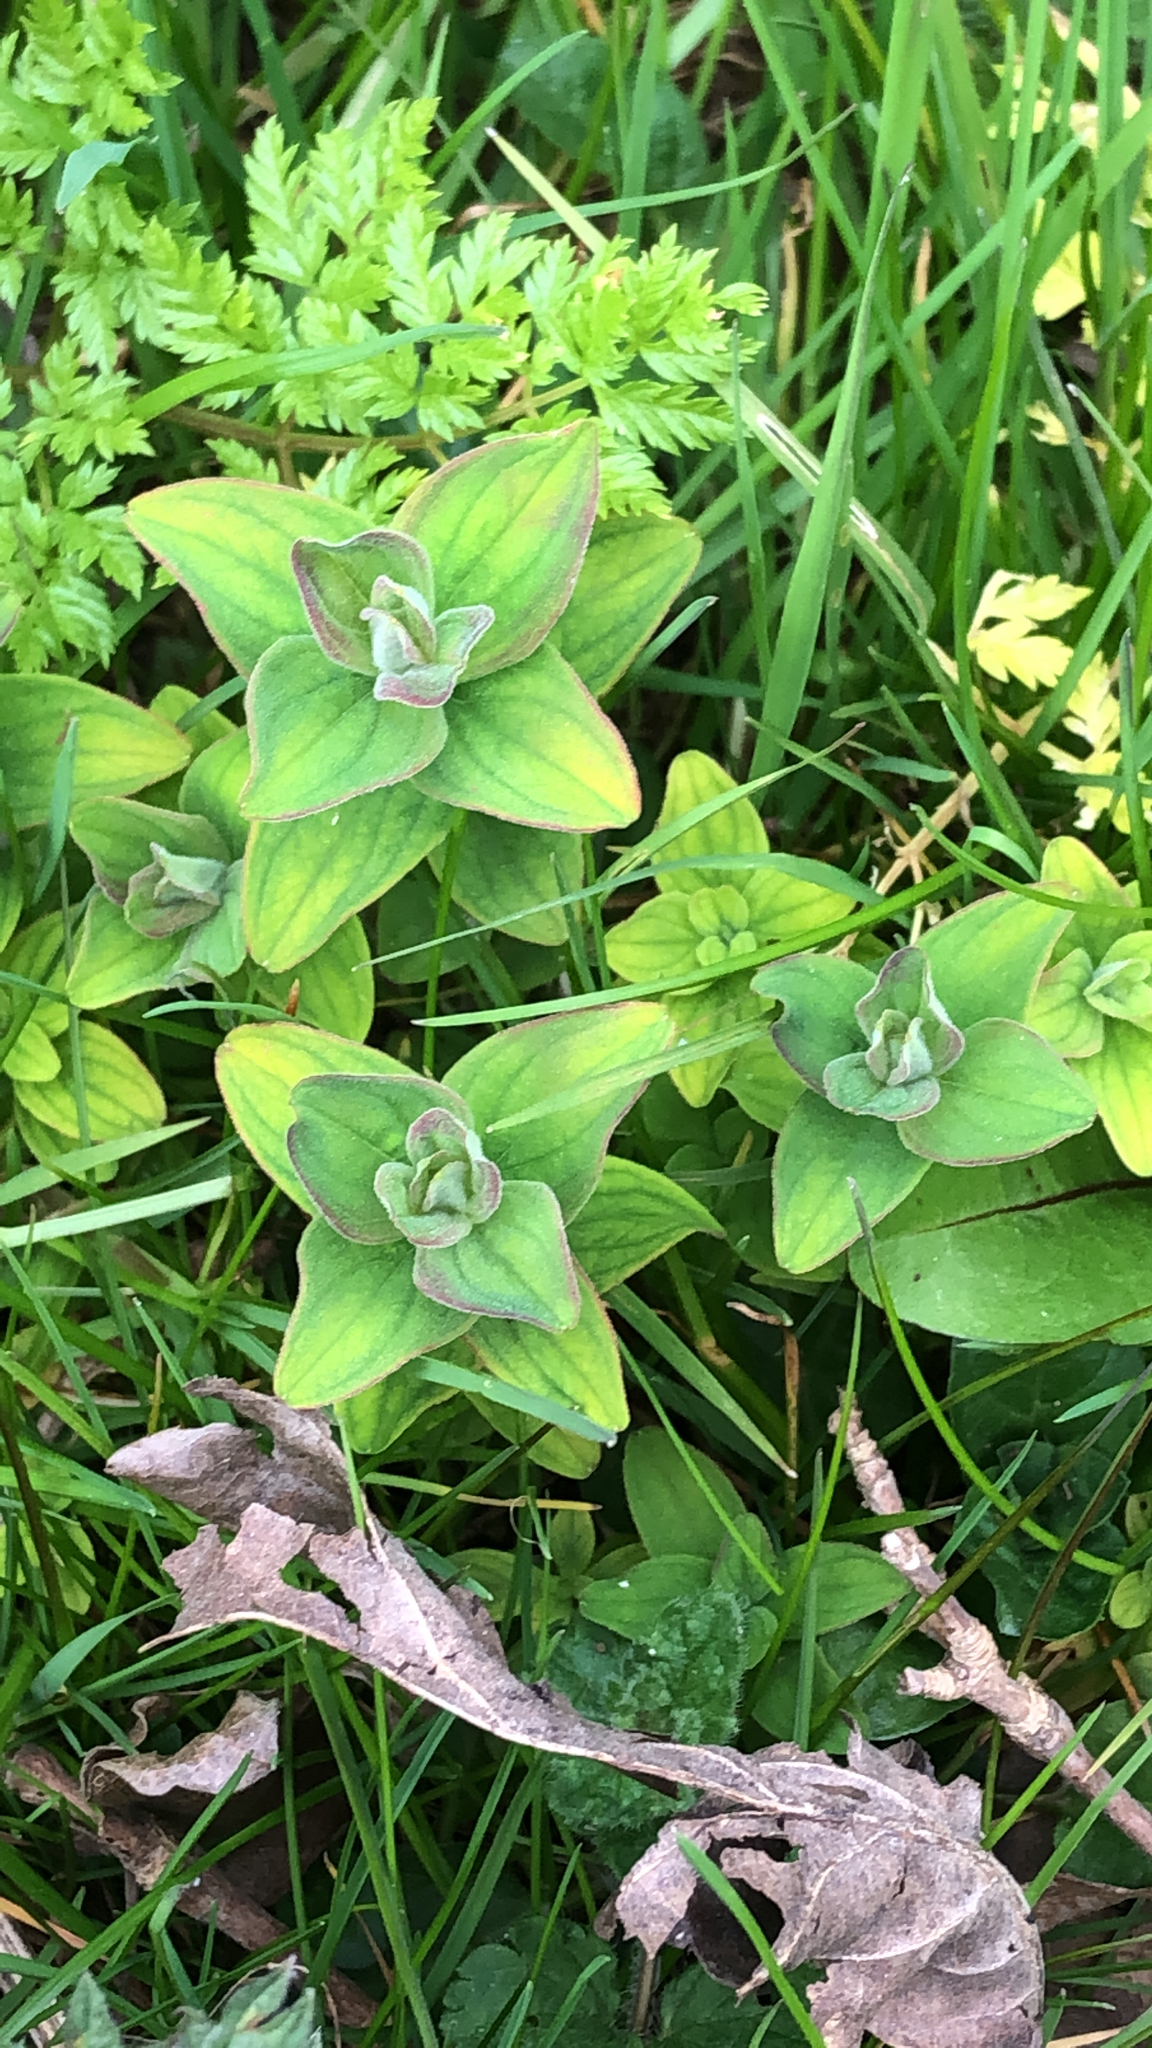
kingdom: Plantae
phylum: Tracheophyta
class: Magnoliopsida
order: Malpighiales
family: Hypericaceae
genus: Hypericum
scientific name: Hypericum hirsutum
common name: Hairy st. john's-wort
